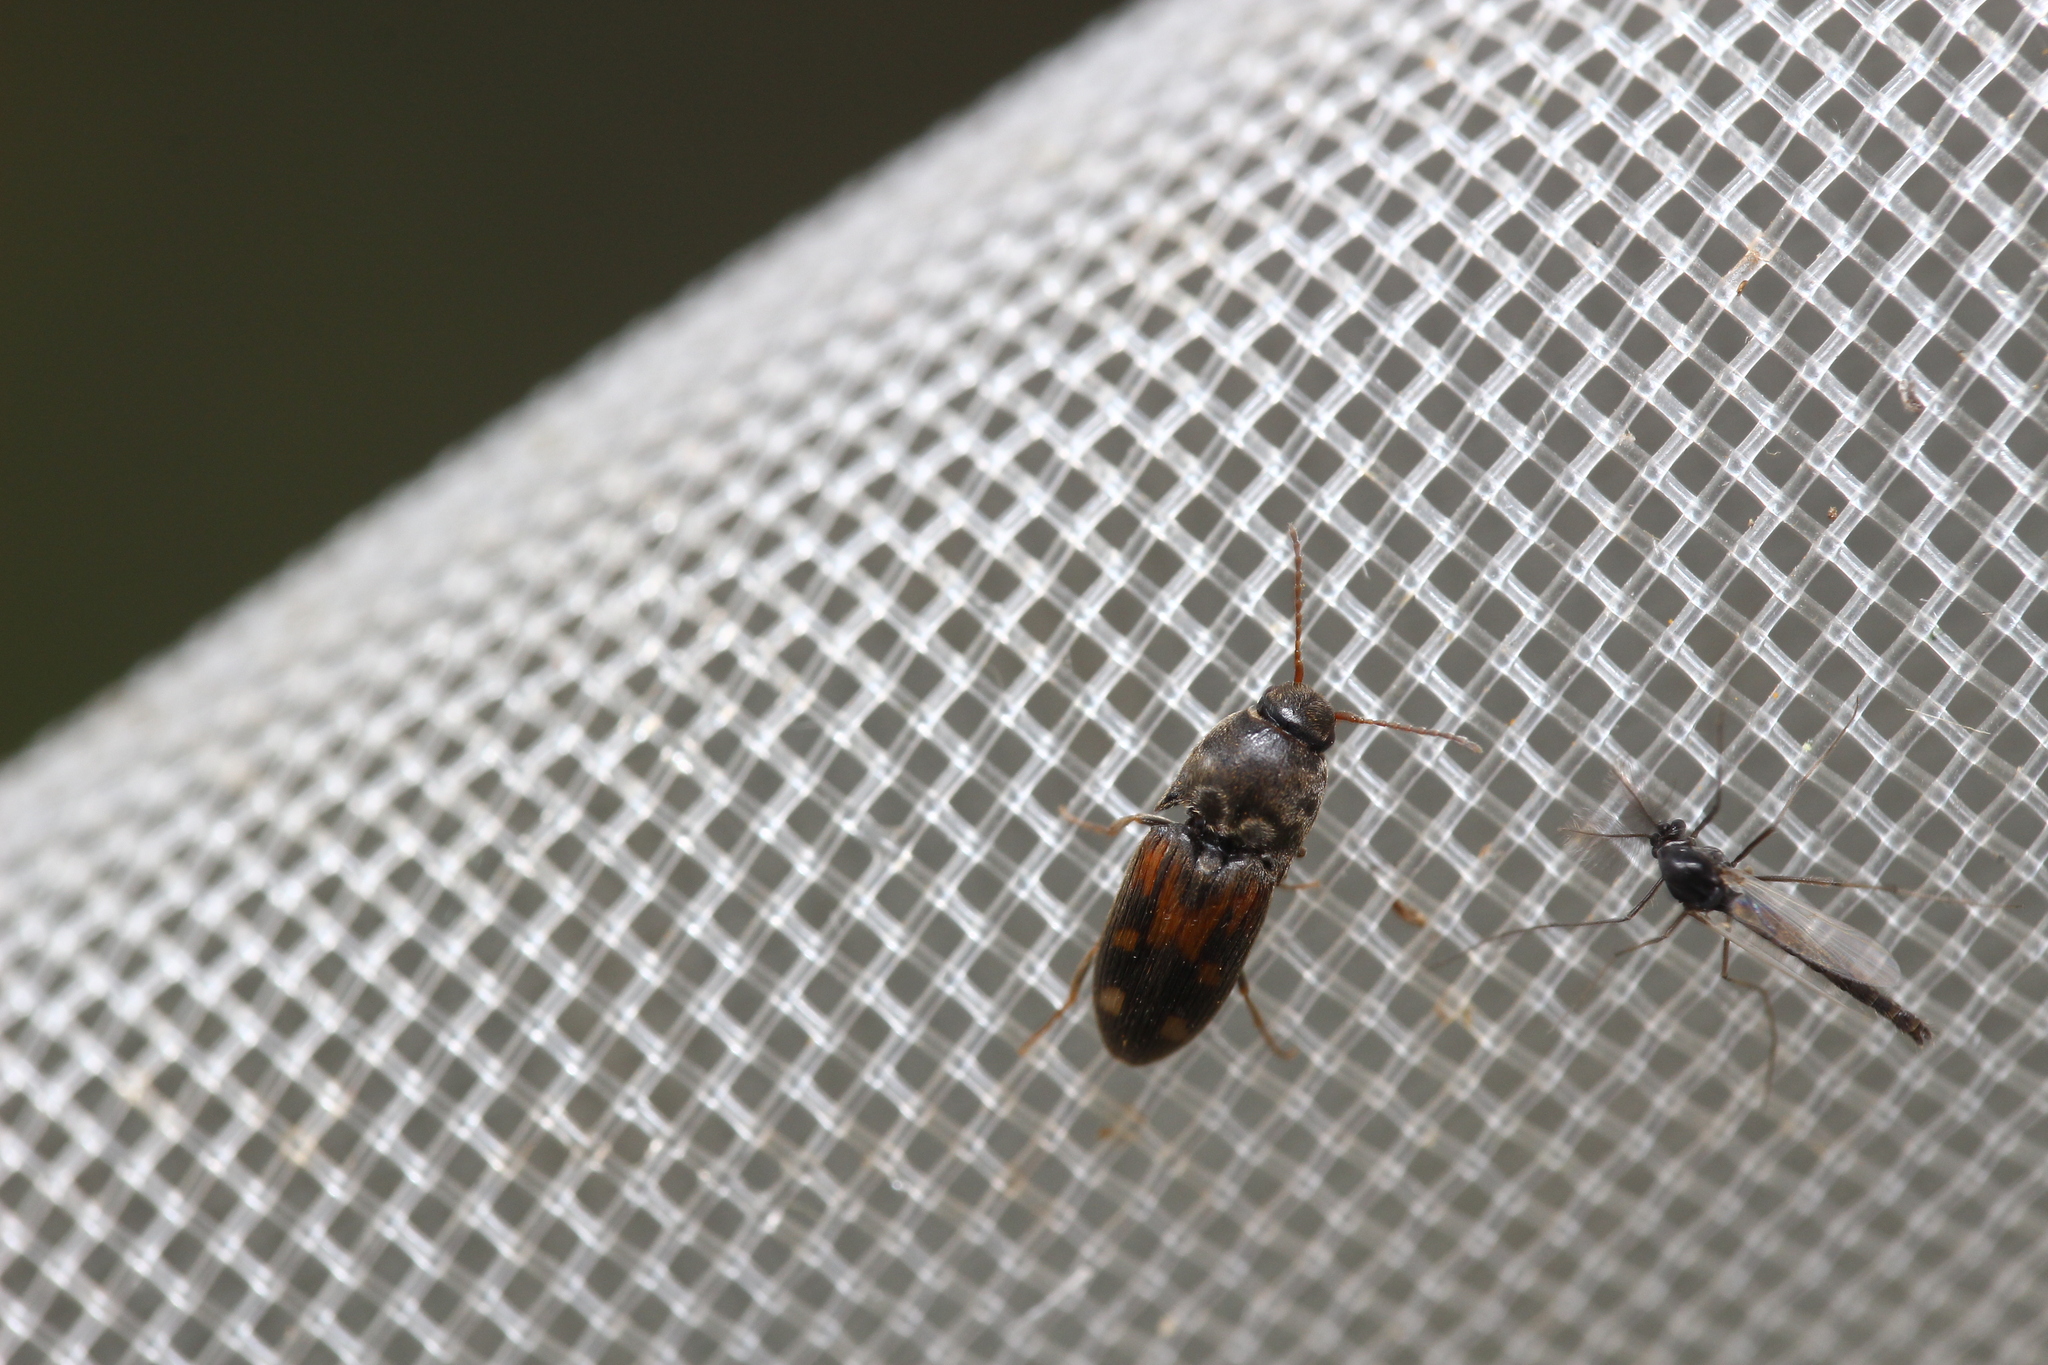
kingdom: Animalia
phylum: Arthropoda
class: Insecta
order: Coleoptera
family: Elateridae
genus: Drasterius
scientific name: Drasterius bimaculatus
